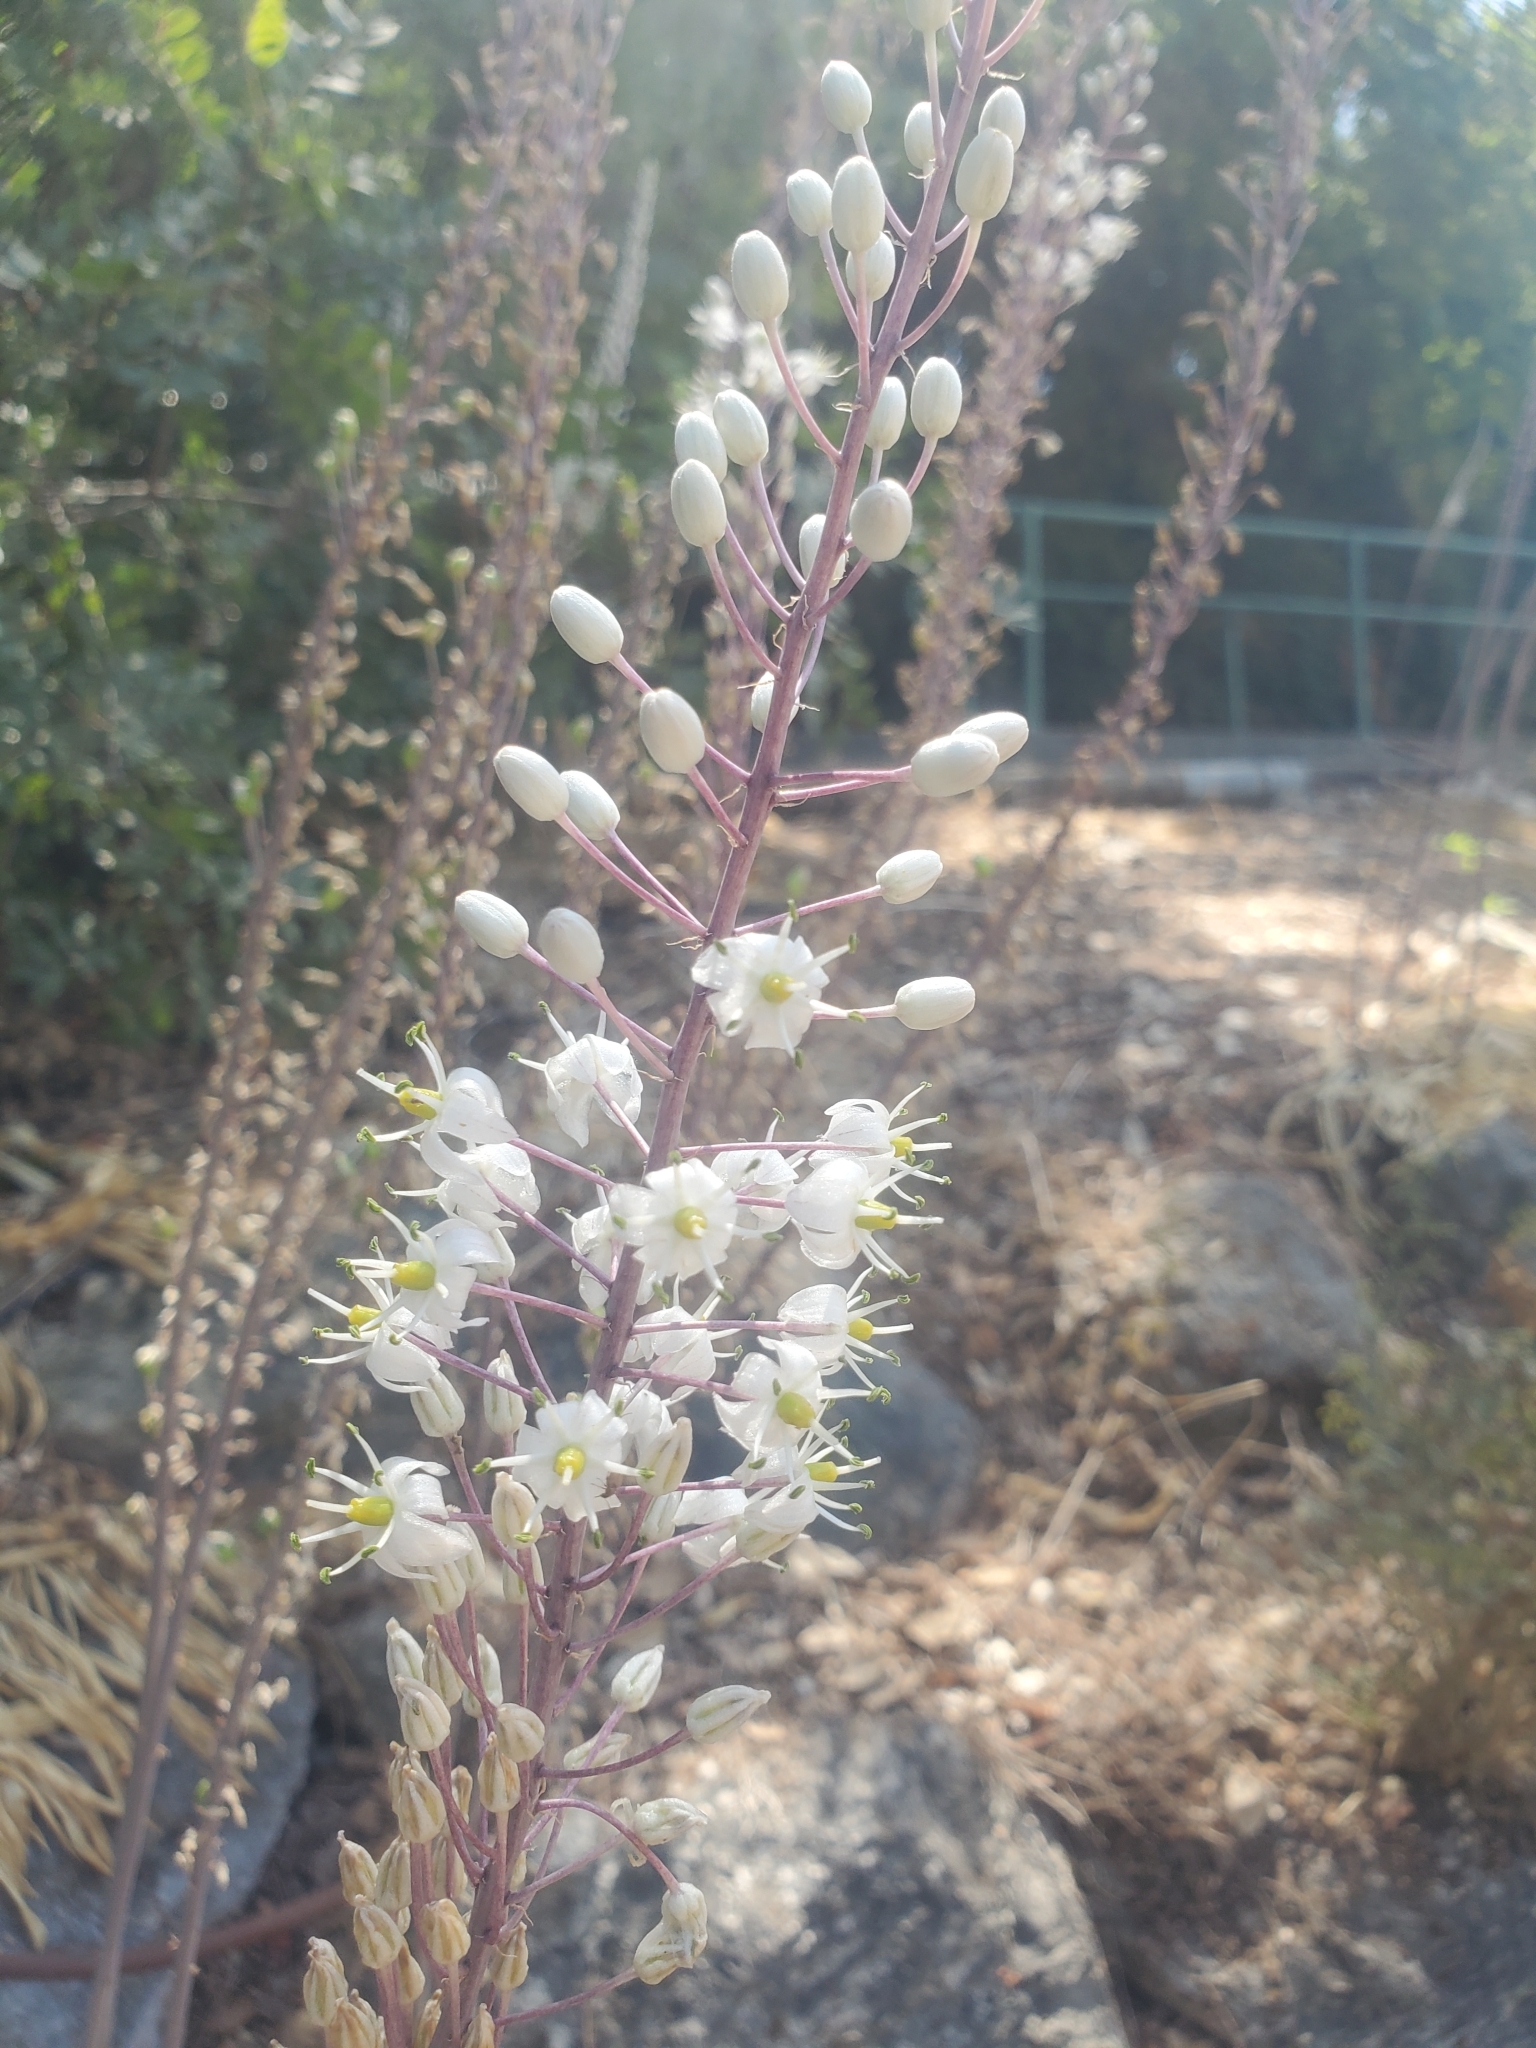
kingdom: Plantae
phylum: Tracheophyta
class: Liliopsida
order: Asparagales
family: Asparagaceae
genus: Drimia
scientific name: Drimia aphylla
